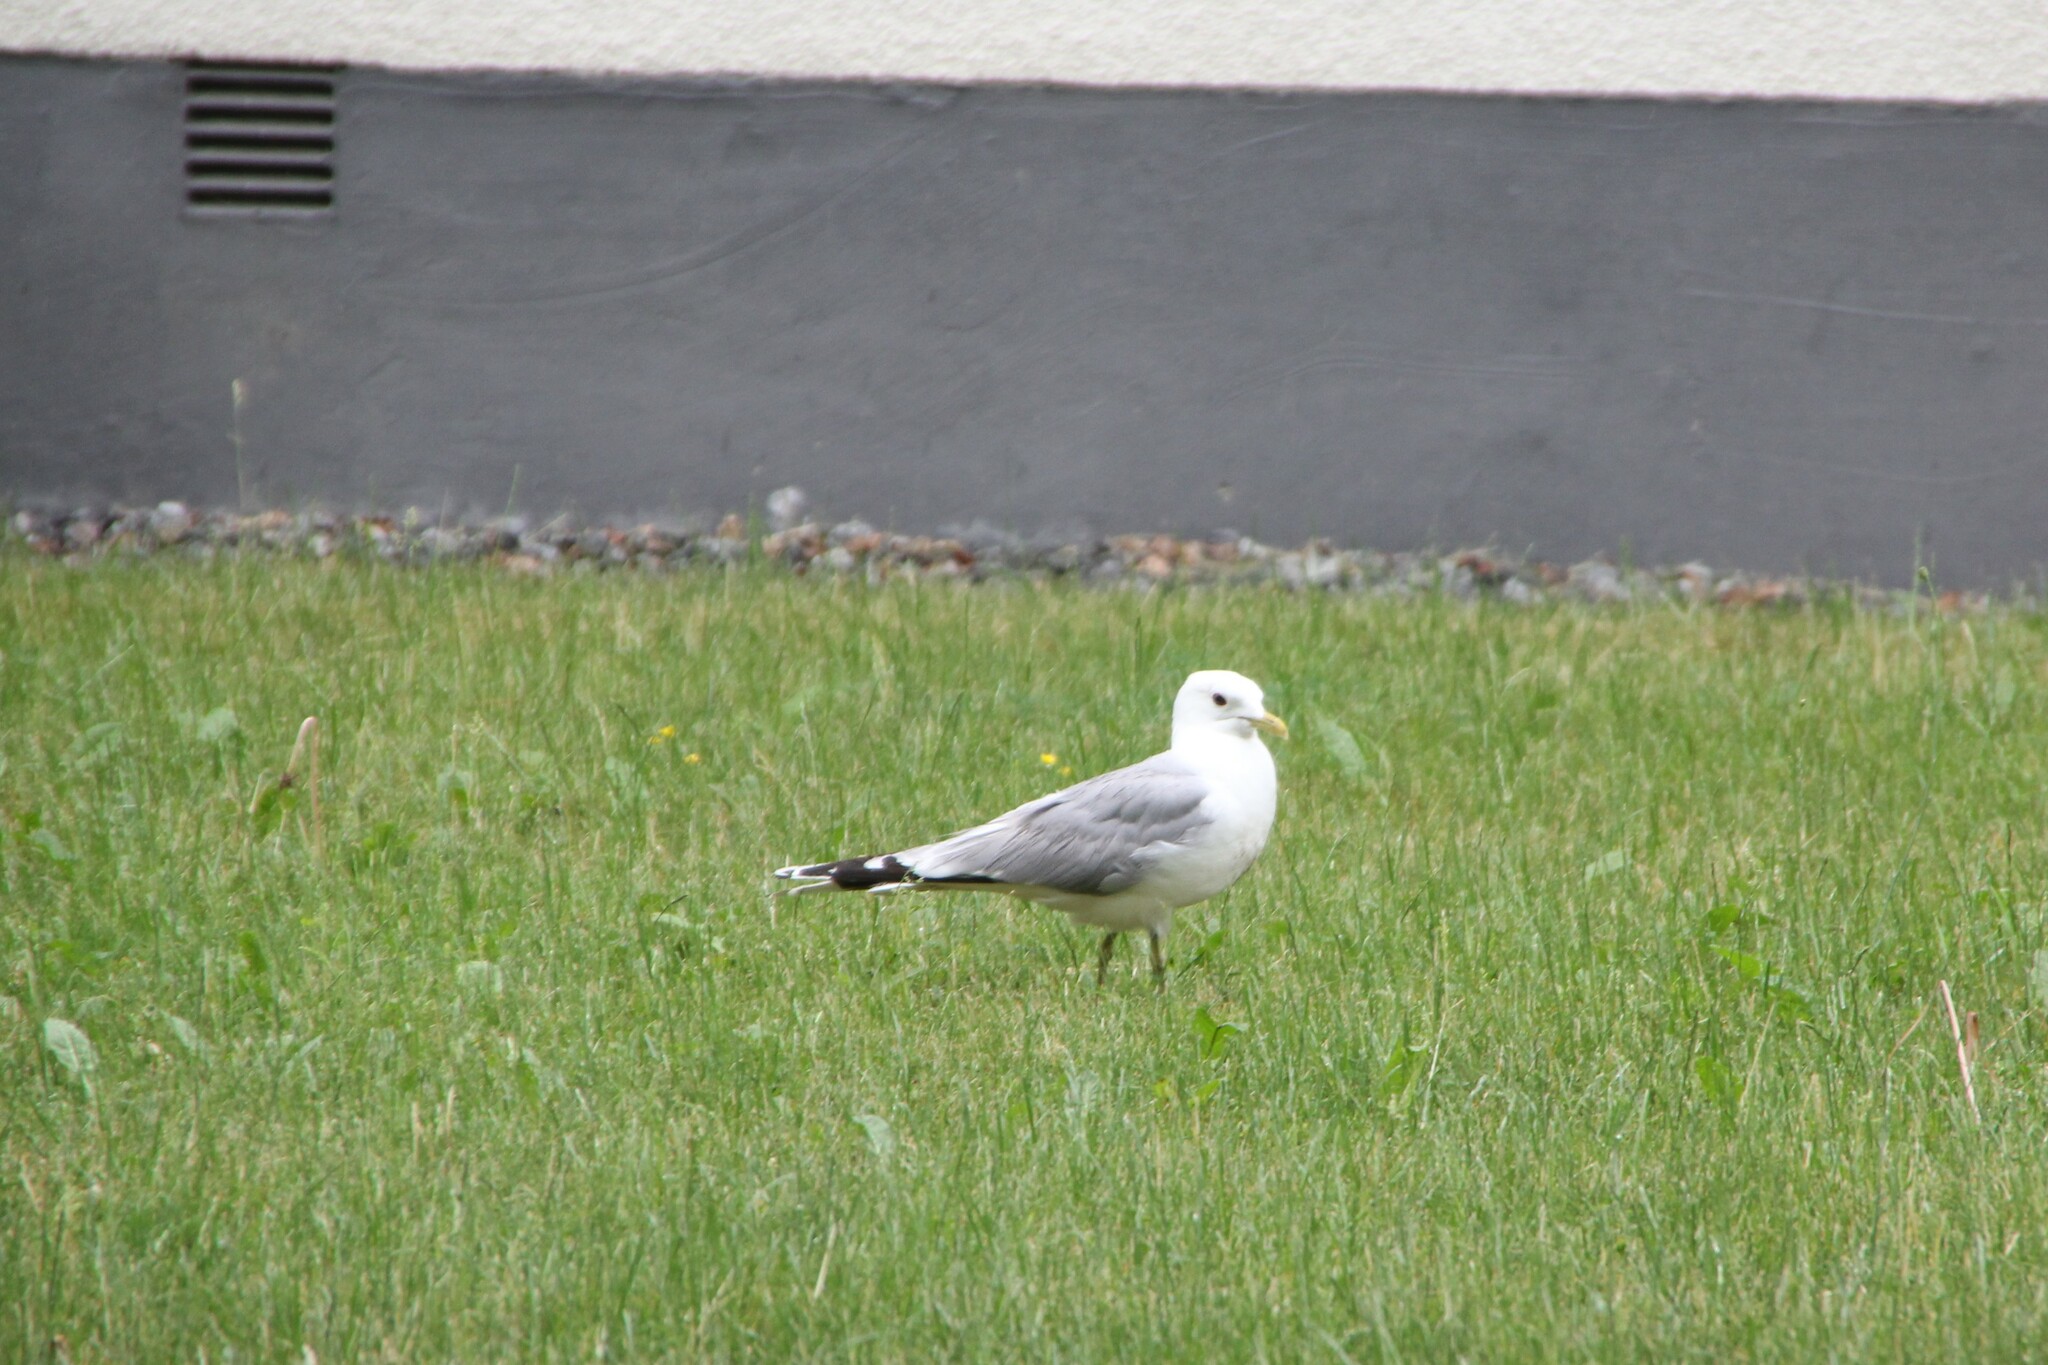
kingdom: Animalia
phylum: Chordata
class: Aves
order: Charadriiformes
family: Laridae
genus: Larus
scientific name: Larus canus
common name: Mew gull
